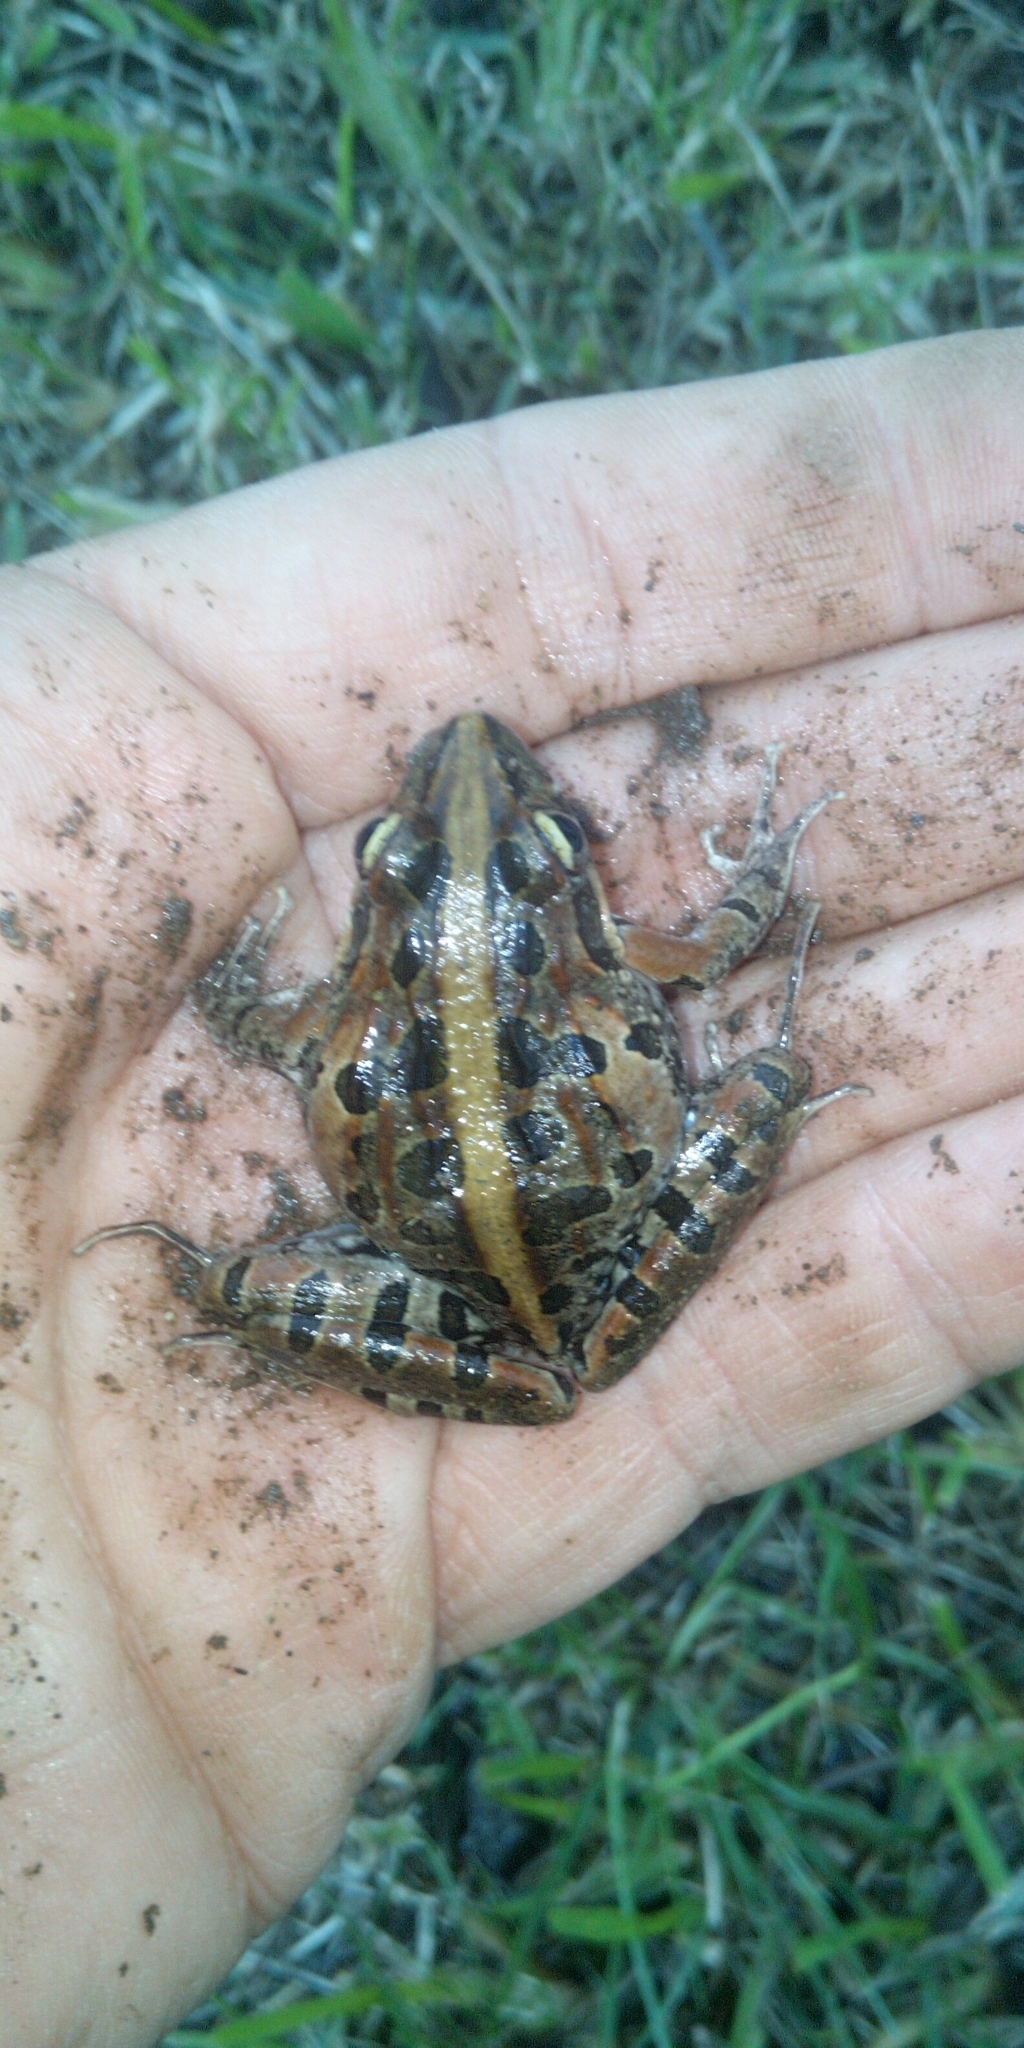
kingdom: Animalia
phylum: Chordata
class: Amphibia
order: Anura
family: Pyxicephalidae
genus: Strongylopus
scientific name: Strongylopus grayii
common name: Gray's stream frog
